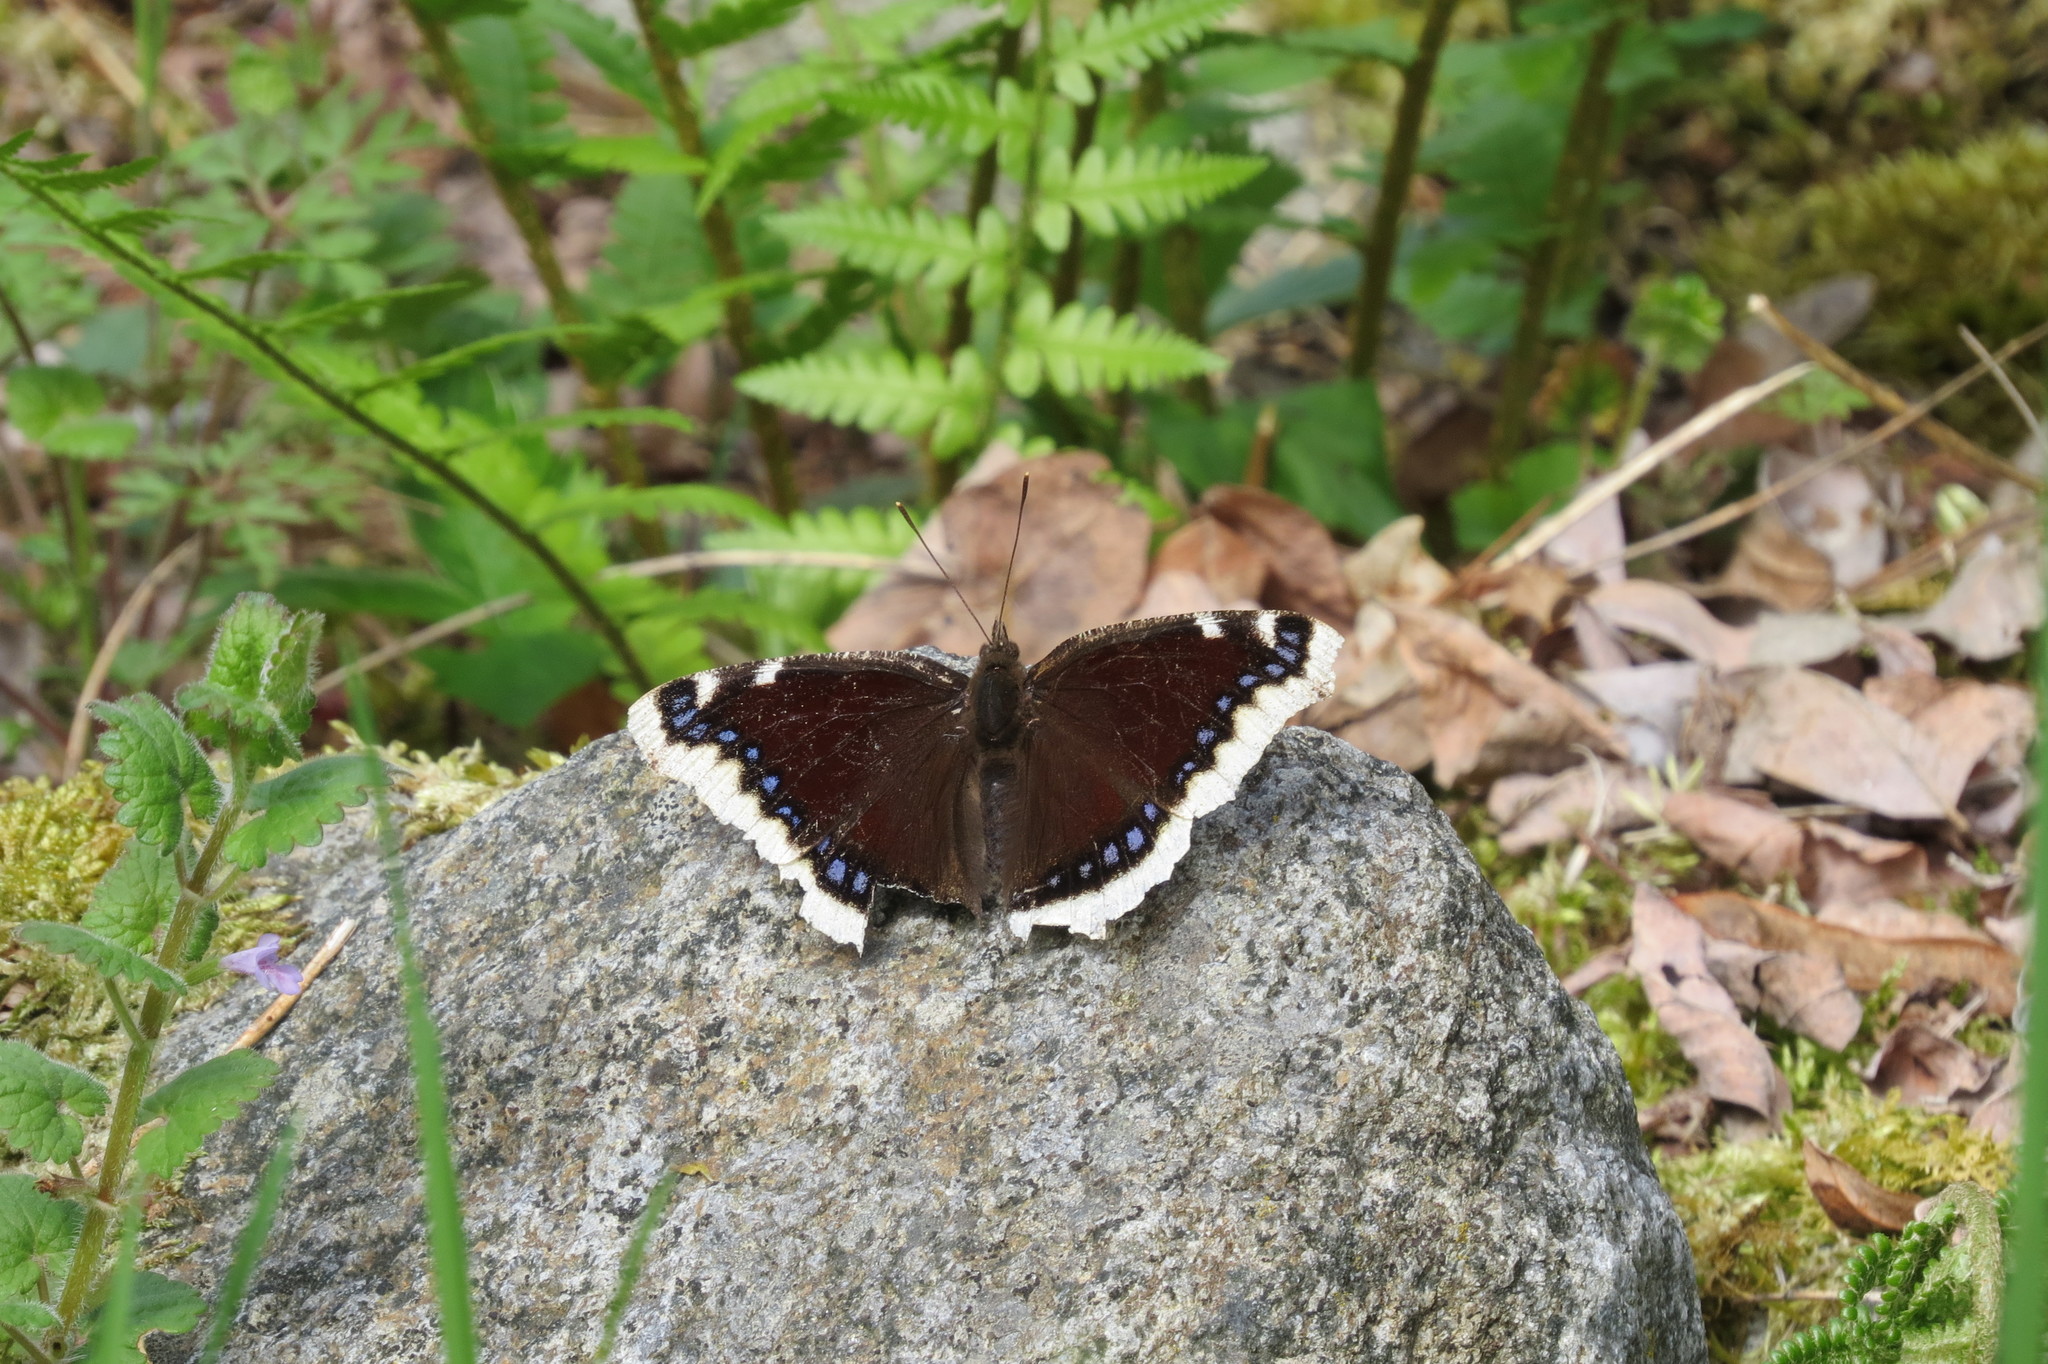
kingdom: Animalia
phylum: Arthropoda
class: Insecta
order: Lepidoptera
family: Nymphalidae
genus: Nymphalis
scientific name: Nymphalis antiopa
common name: Camberwell beauty
